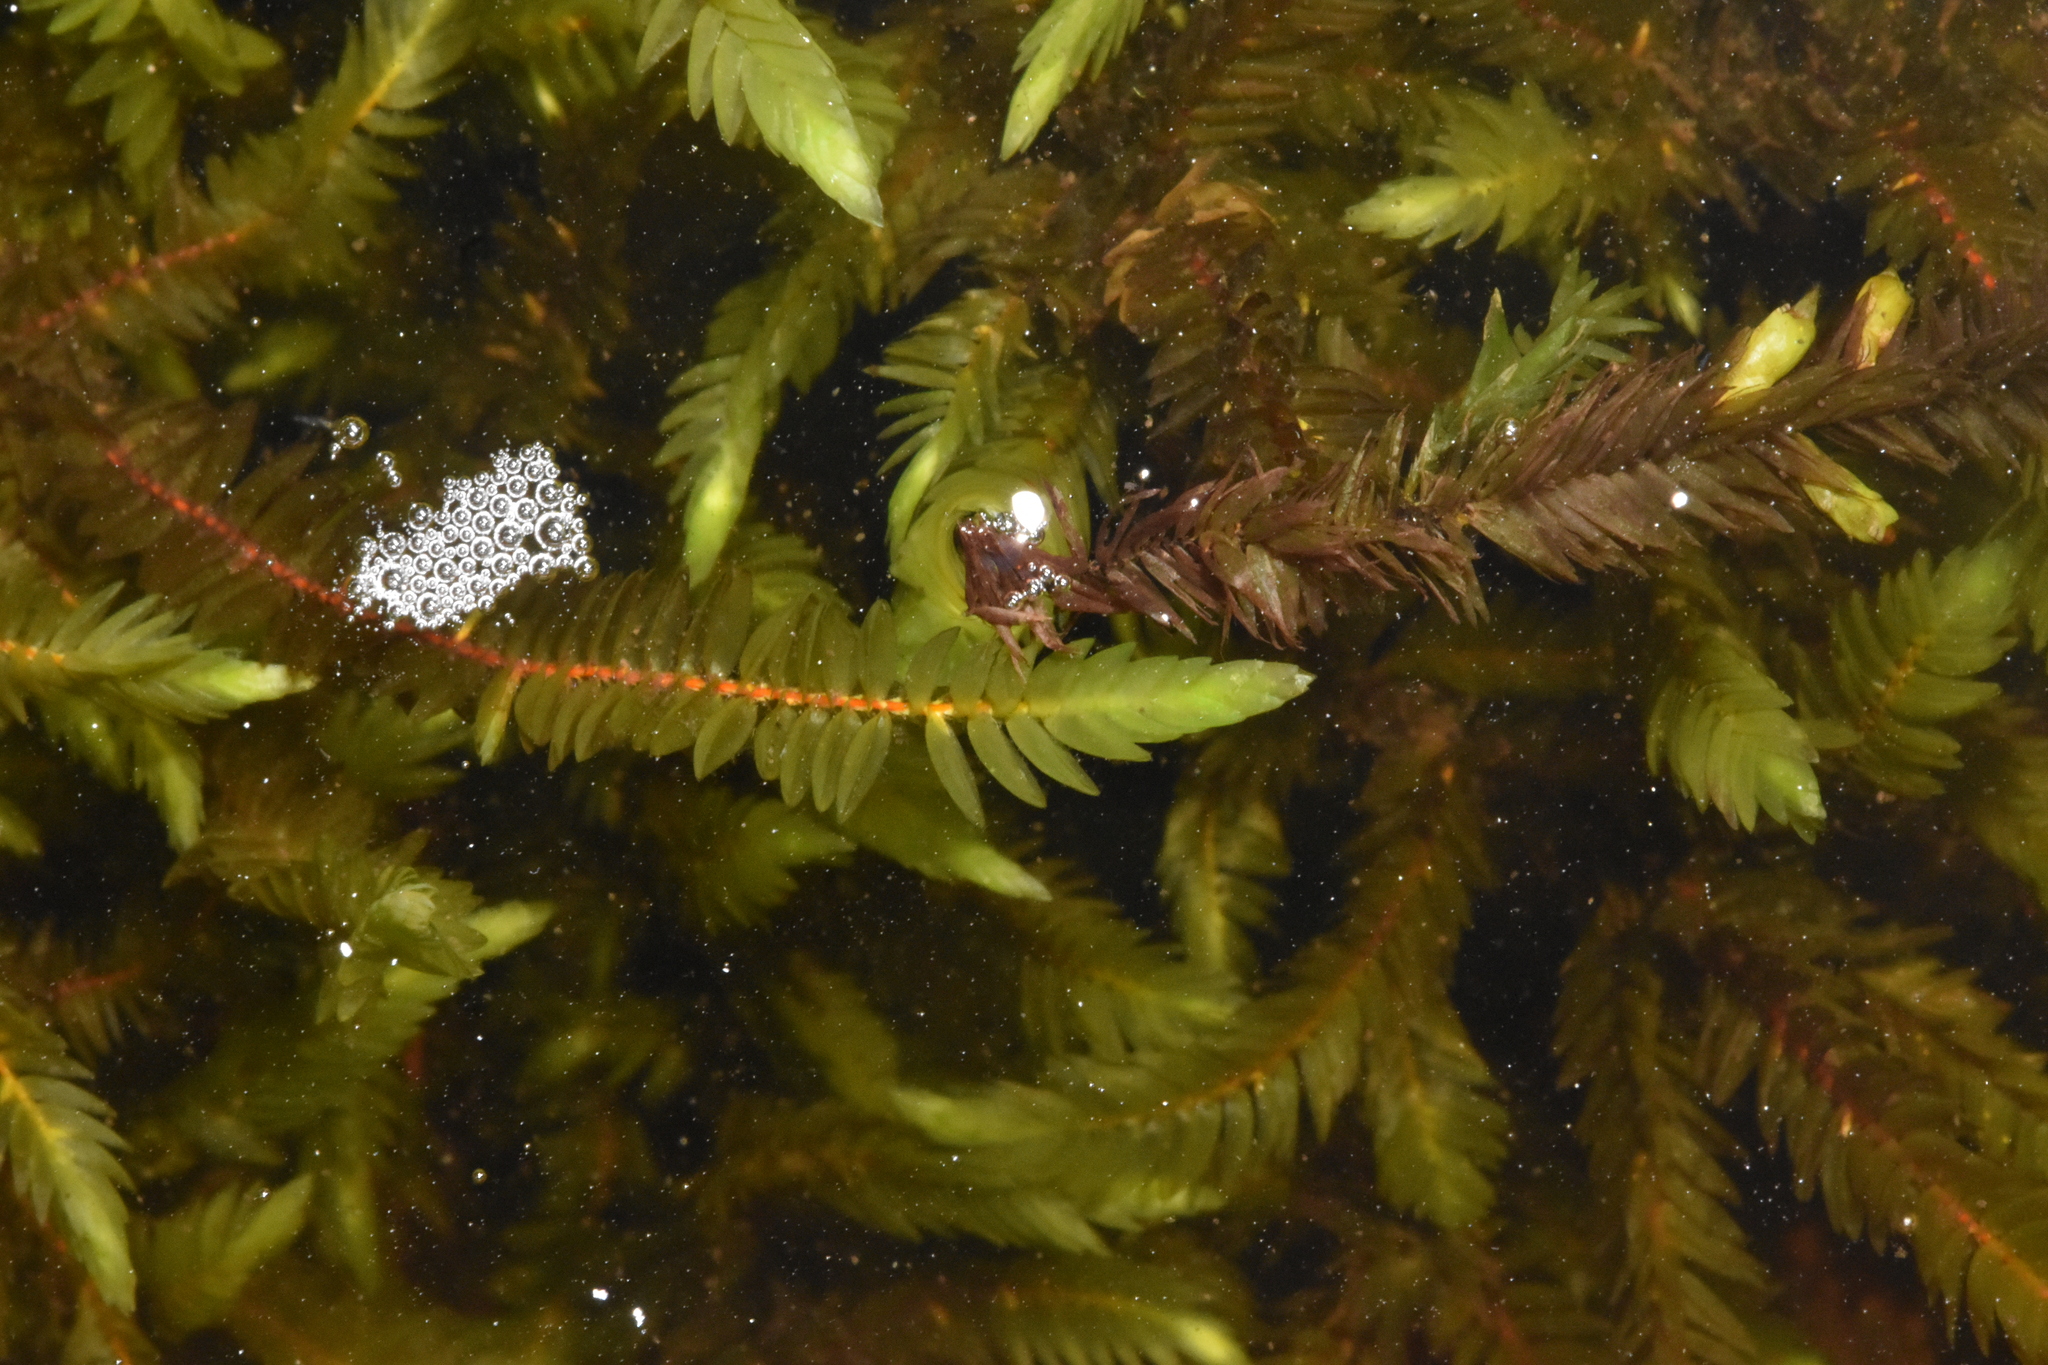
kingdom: Plantae
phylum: Bryophyta
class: Bryopsida
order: Hypnales
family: Fontinalaceae
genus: Fontinalis
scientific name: Fontinalis antipyretica
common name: Greater water-moss
